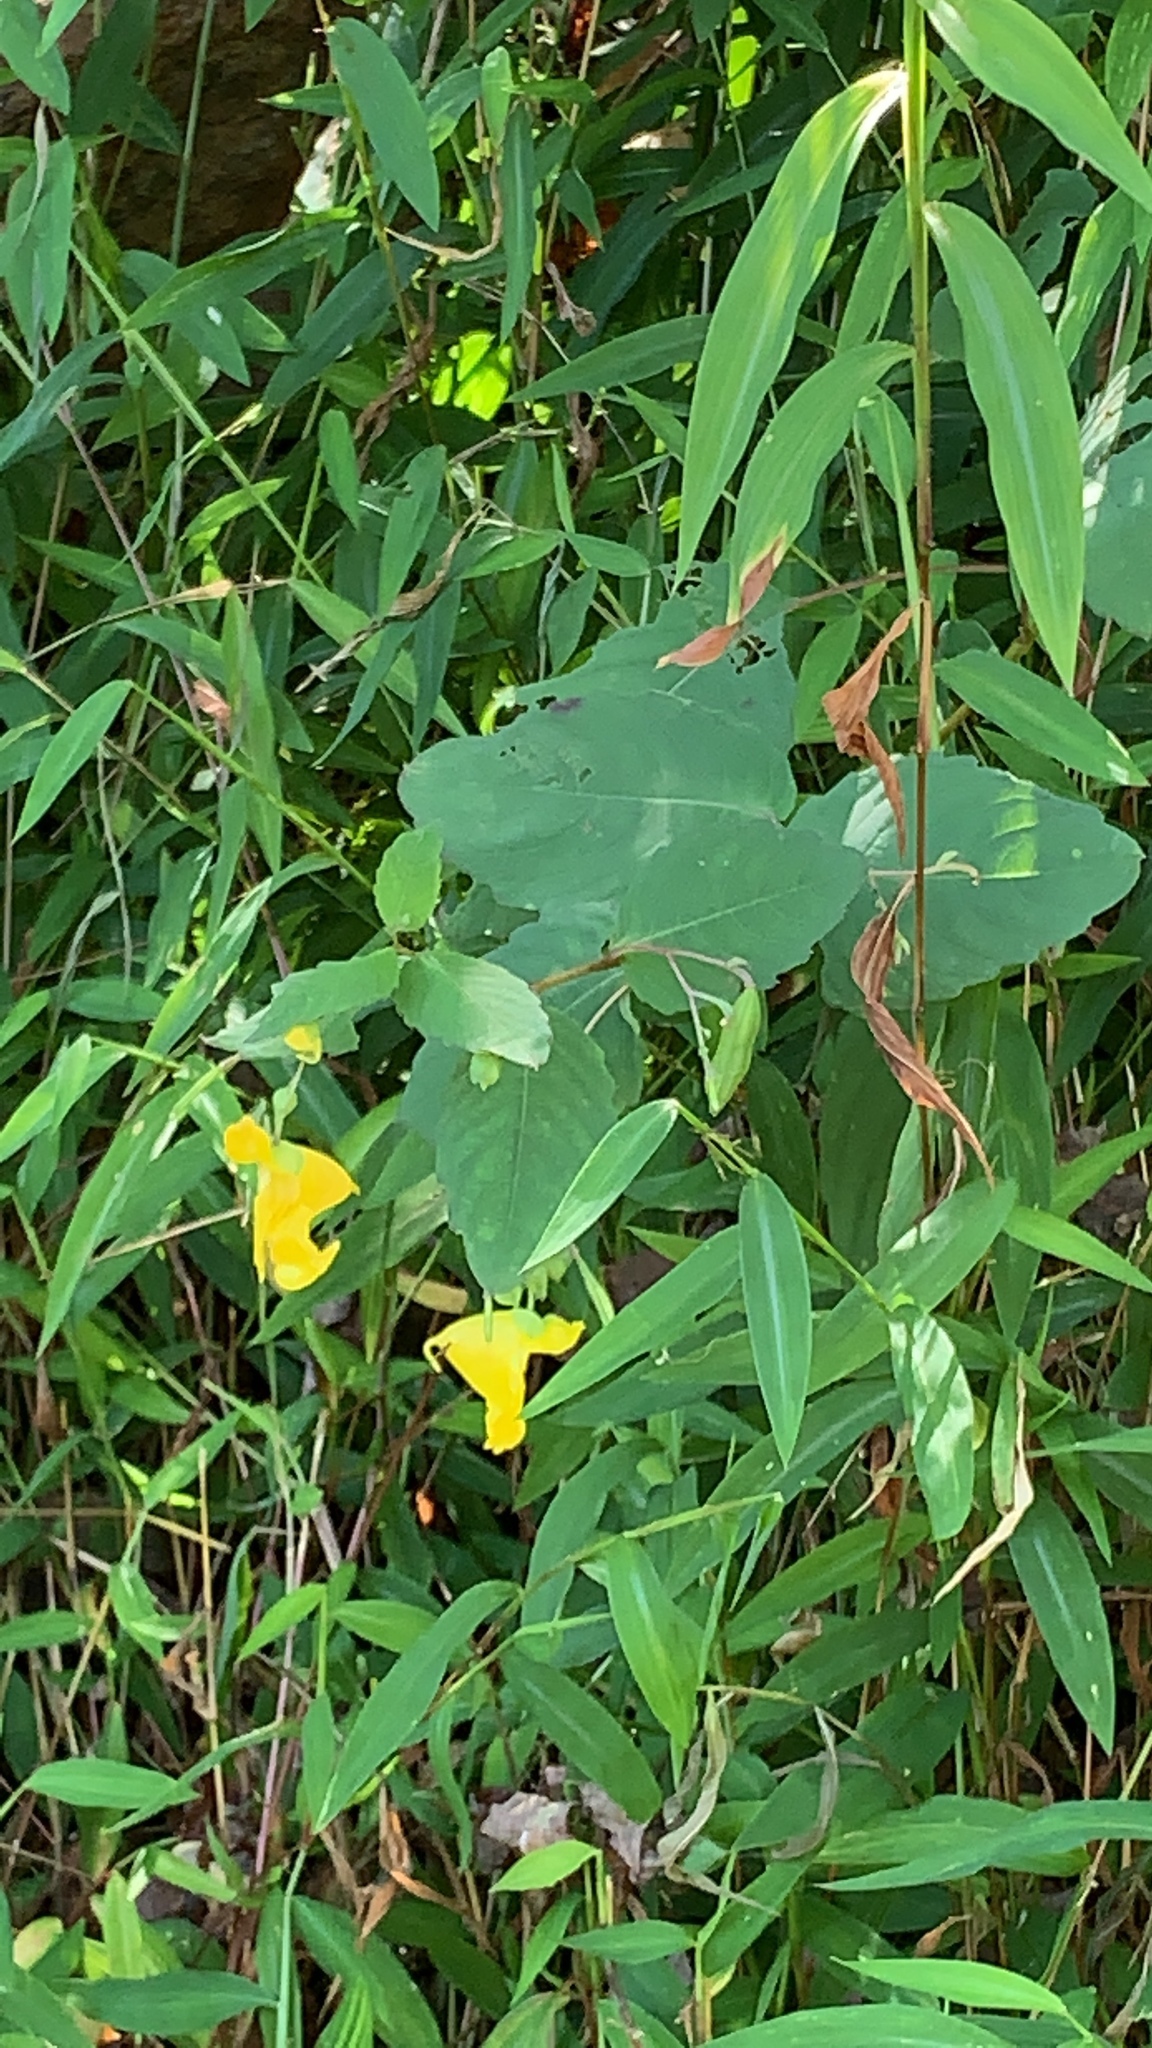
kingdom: Plantae
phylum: Tracheophyta
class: Magnoliopsida
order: Ericales
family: Balsaminaceae
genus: Impatiens
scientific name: Impatiens pallida
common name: Pale snapweed
